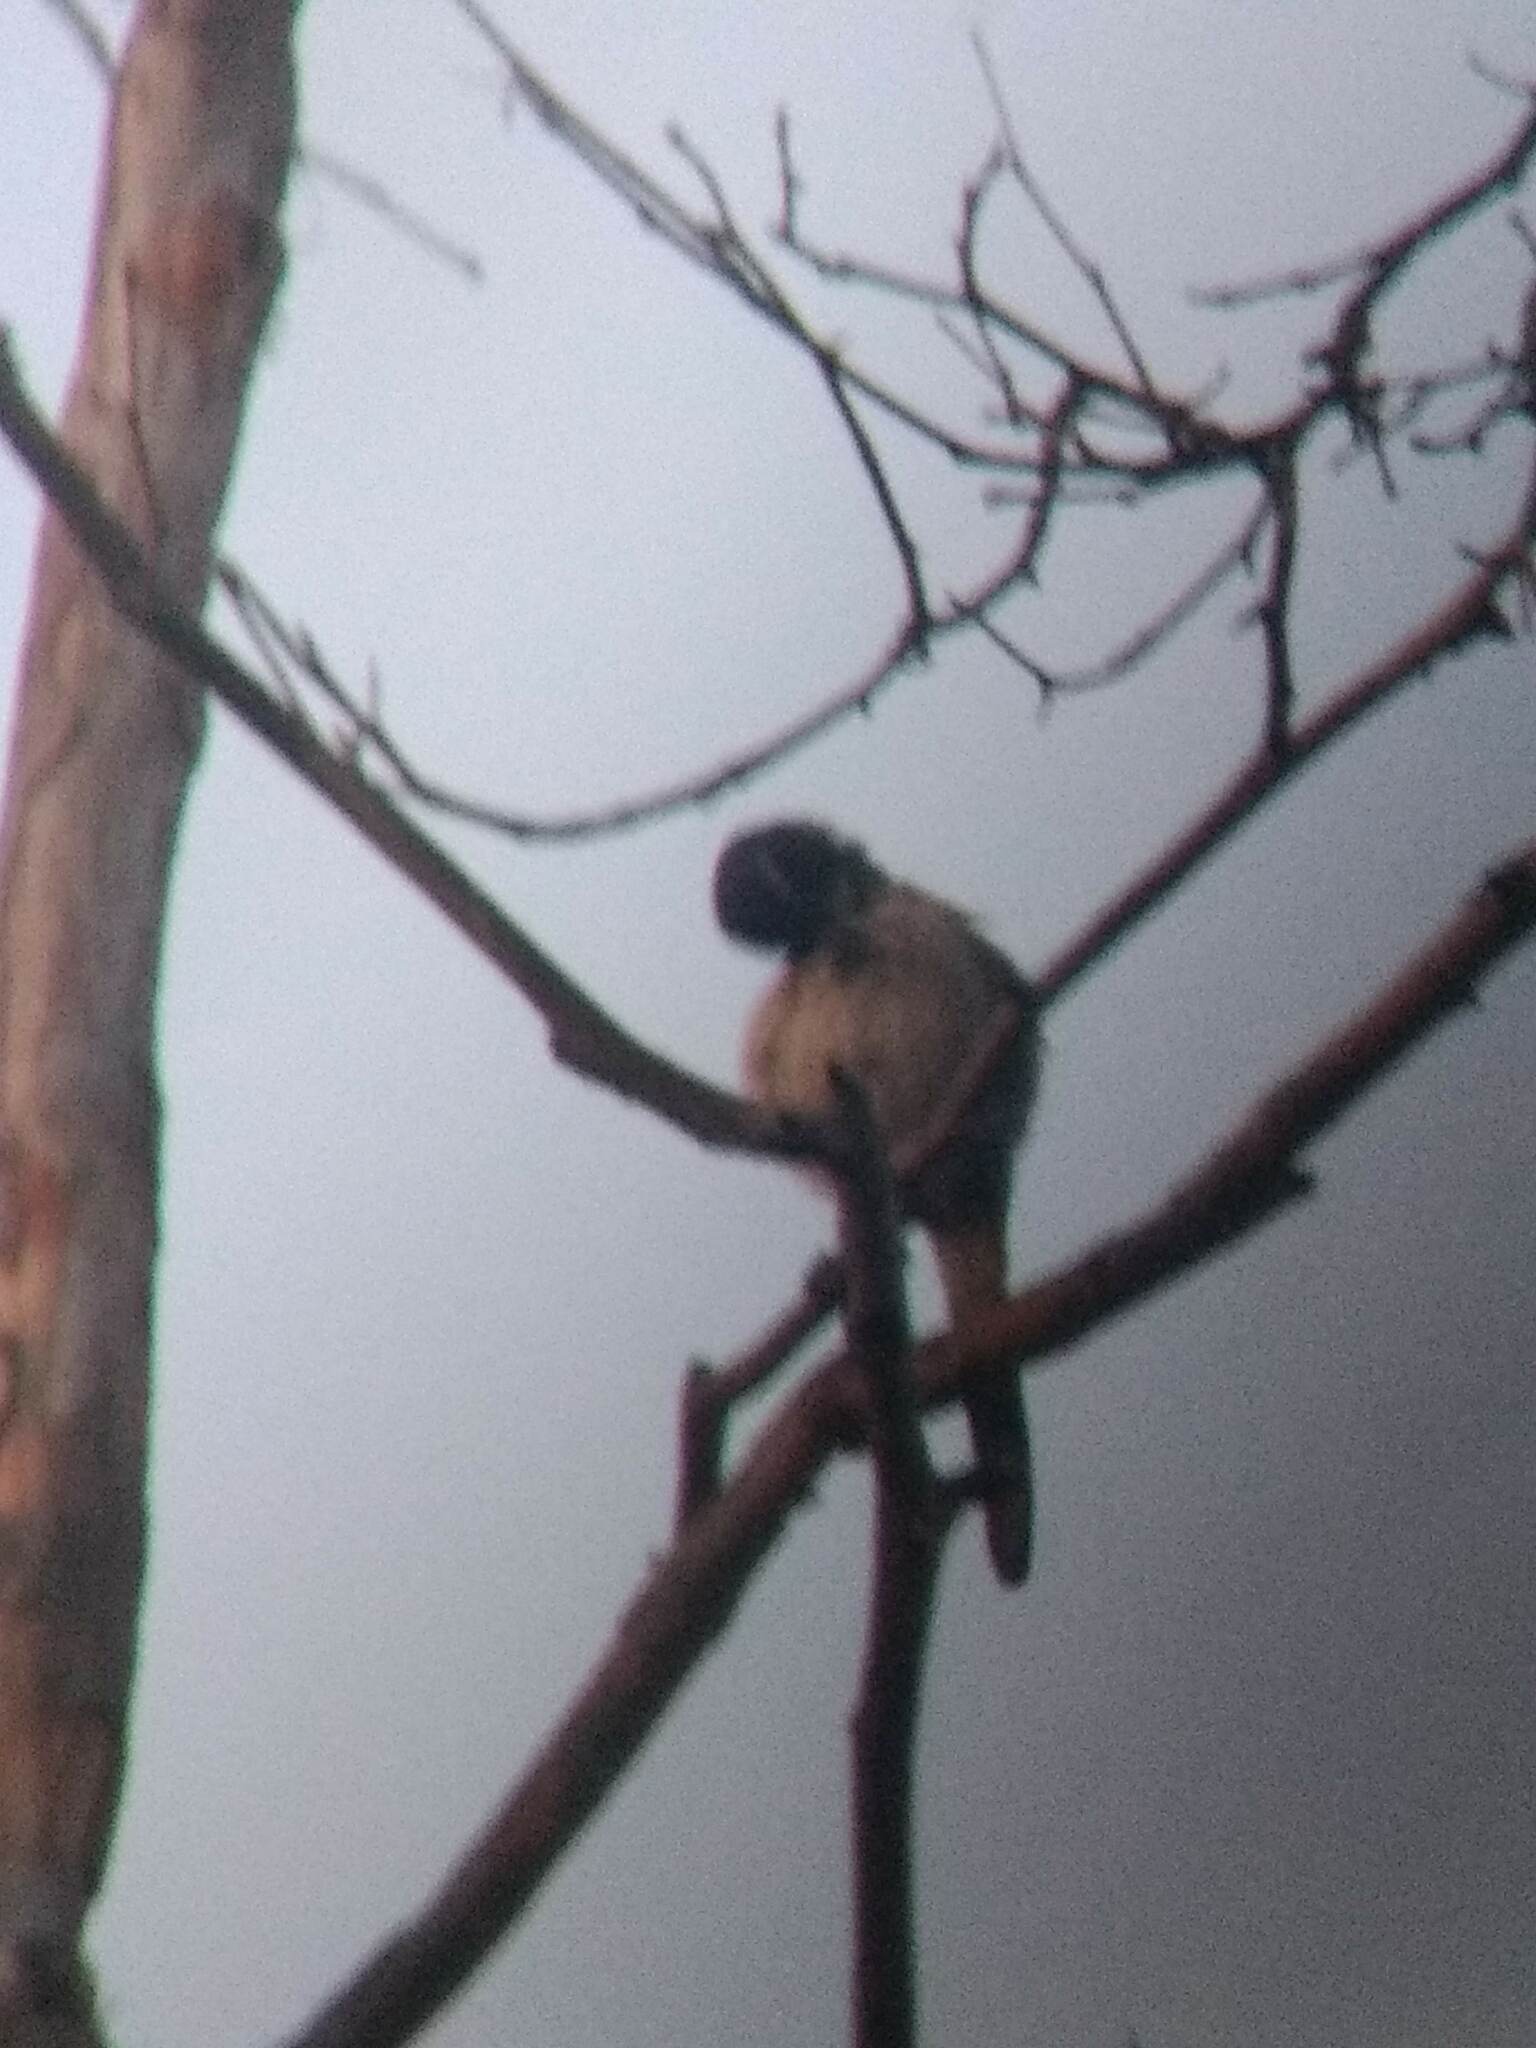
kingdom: Animalia
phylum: Chordata
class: Aves
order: Passeriformes
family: Corvidae
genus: Aphelocoma
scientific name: Aphelocoma californica
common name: California scrub-jay
